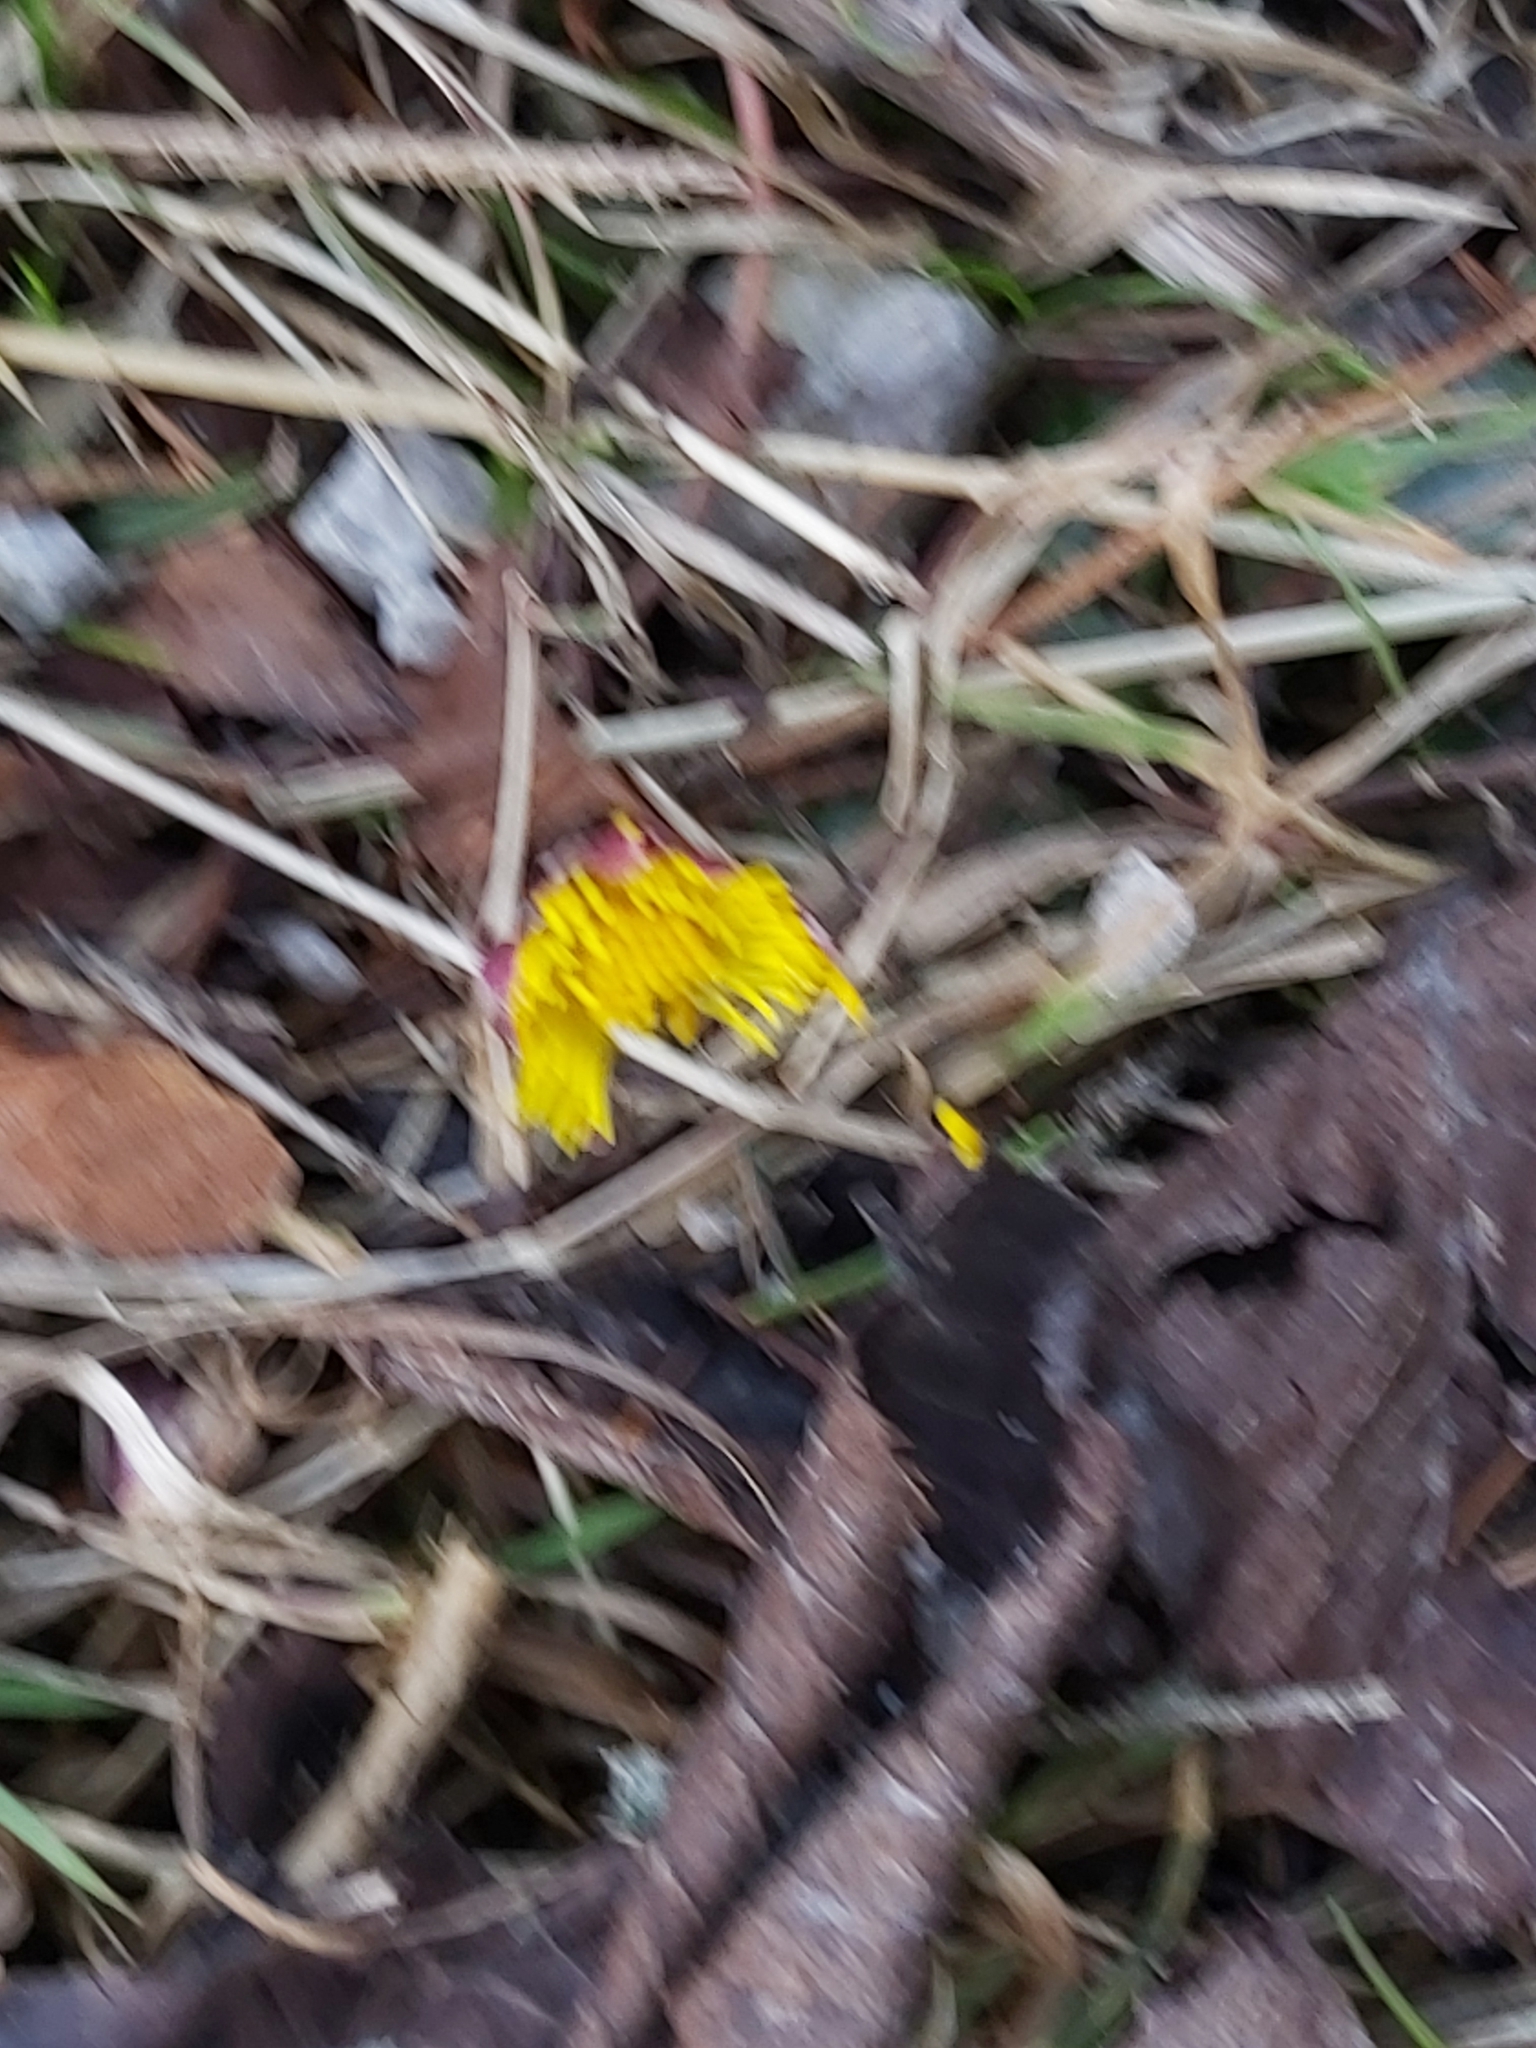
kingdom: Plantae
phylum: Tracheophyta
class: Magnoliopsida
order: Asterales
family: Asteraceae
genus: Tussilago
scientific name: Tussilago farfara
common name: Coltsfoot
